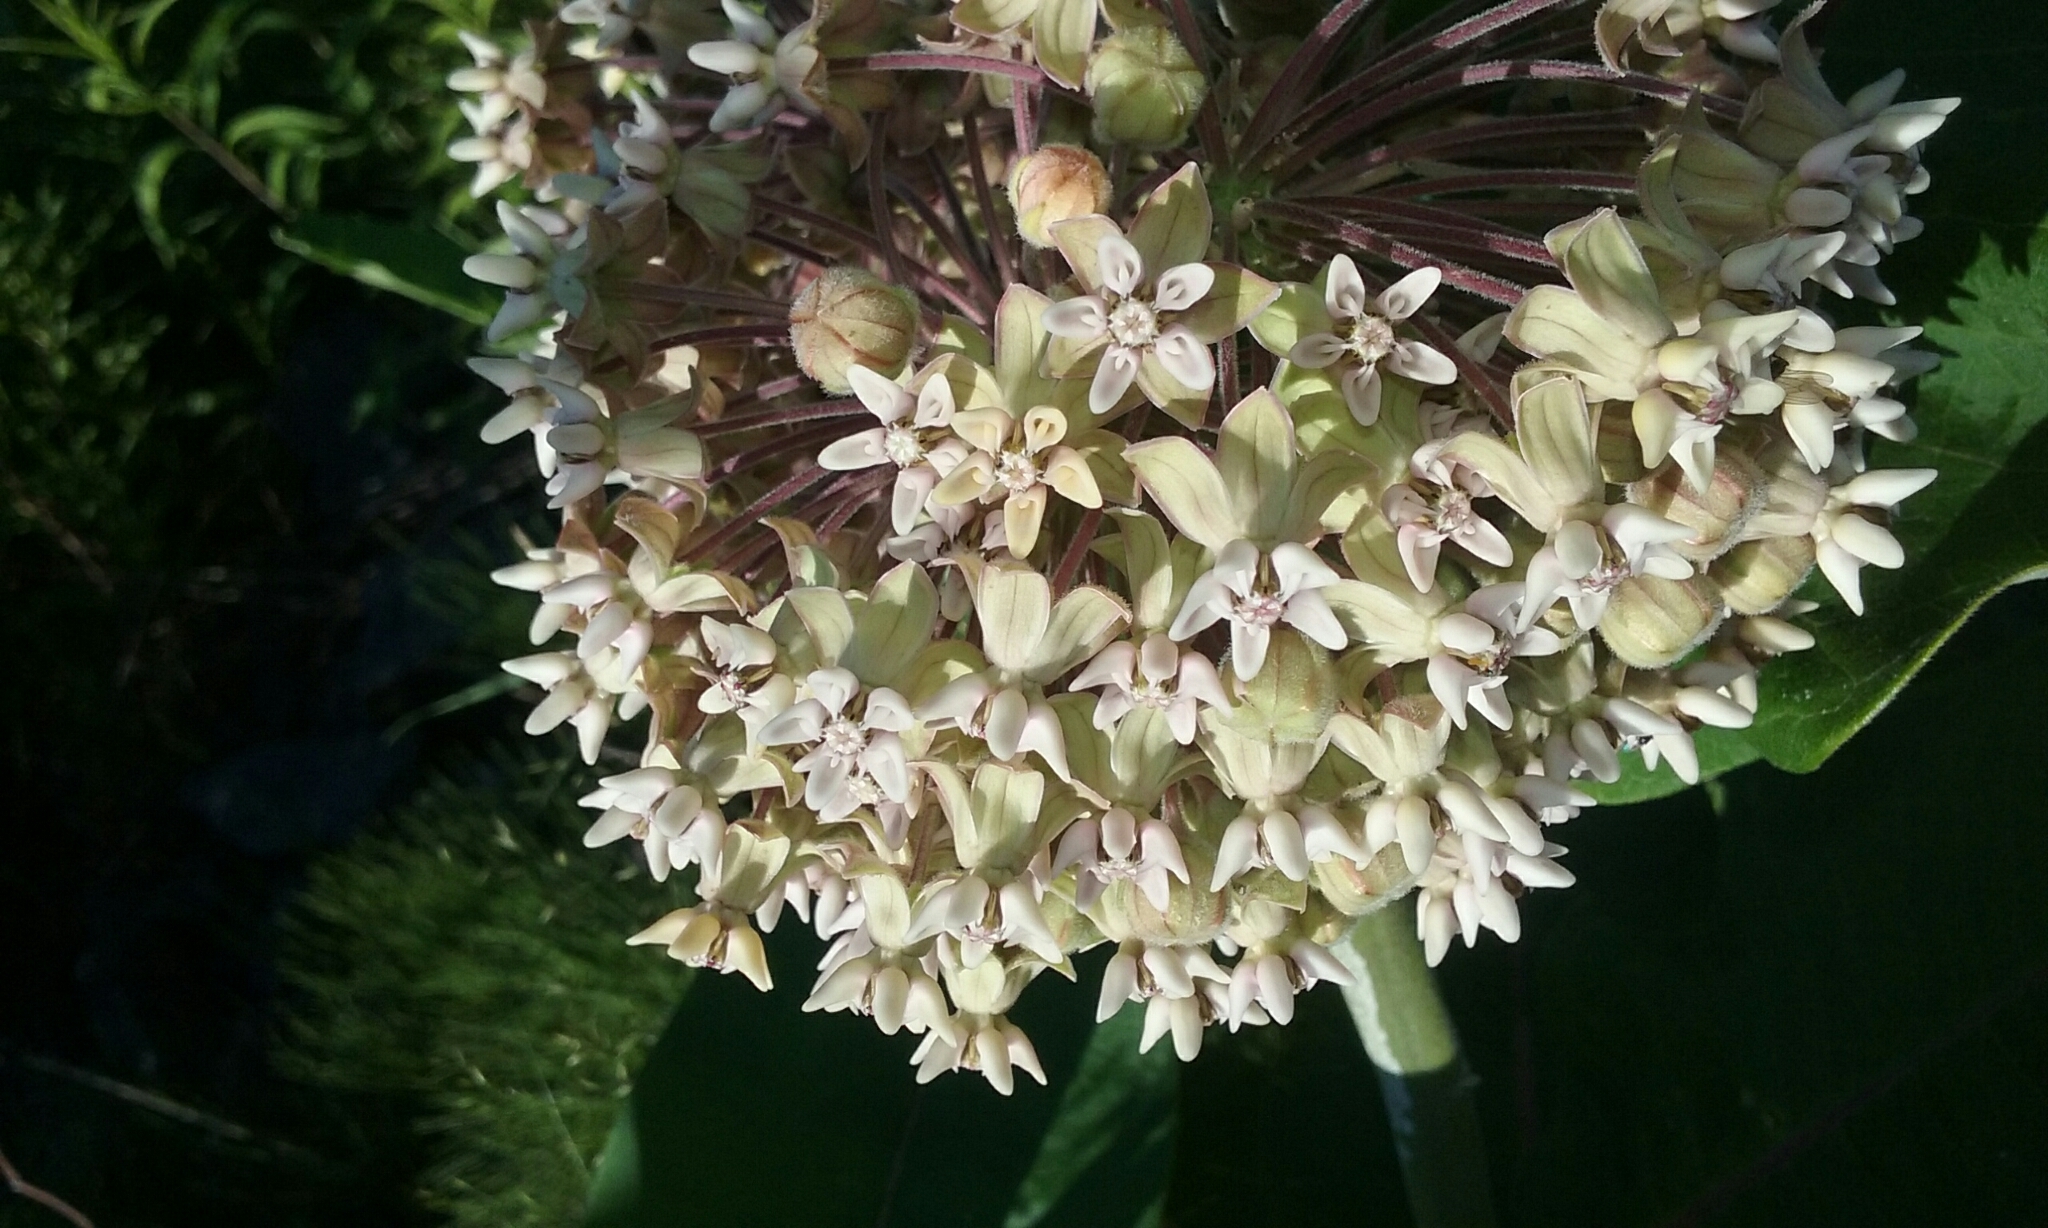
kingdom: Plantae
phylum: Tracheophyta
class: Magnoliopsida
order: Gentianales
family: Apocynaceae
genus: Asclepias
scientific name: Asclepias syriaca
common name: Common milkweed
